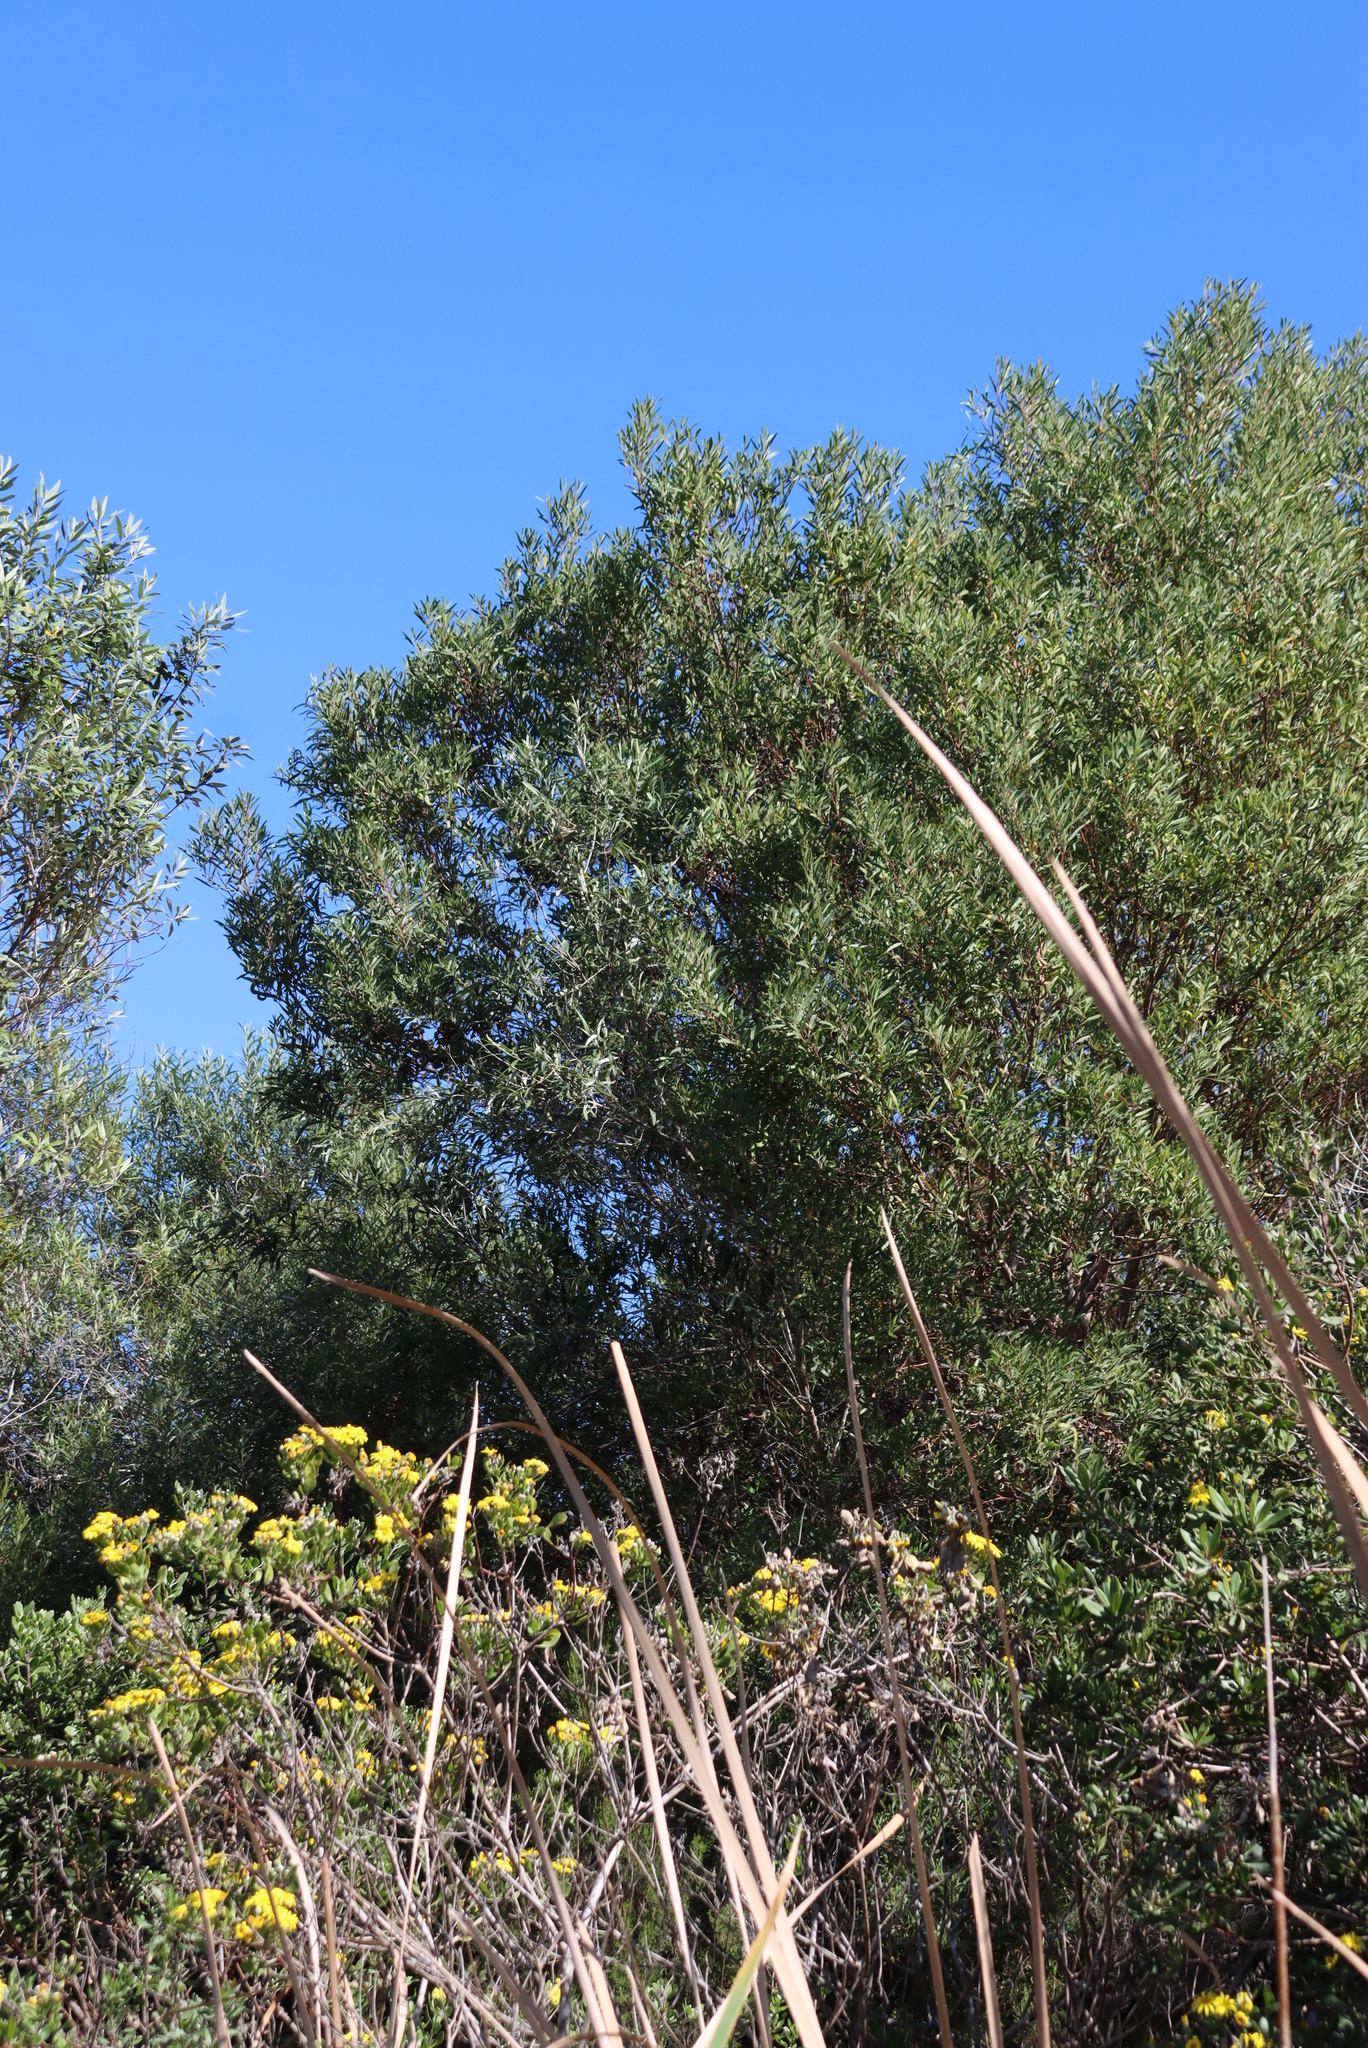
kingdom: Plantae
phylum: Tracheophyta
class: Magnoliopsida
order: Fabales
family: Fabaceae
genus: Acacia
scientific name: Acacia cyclops
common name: Coastal wattle
